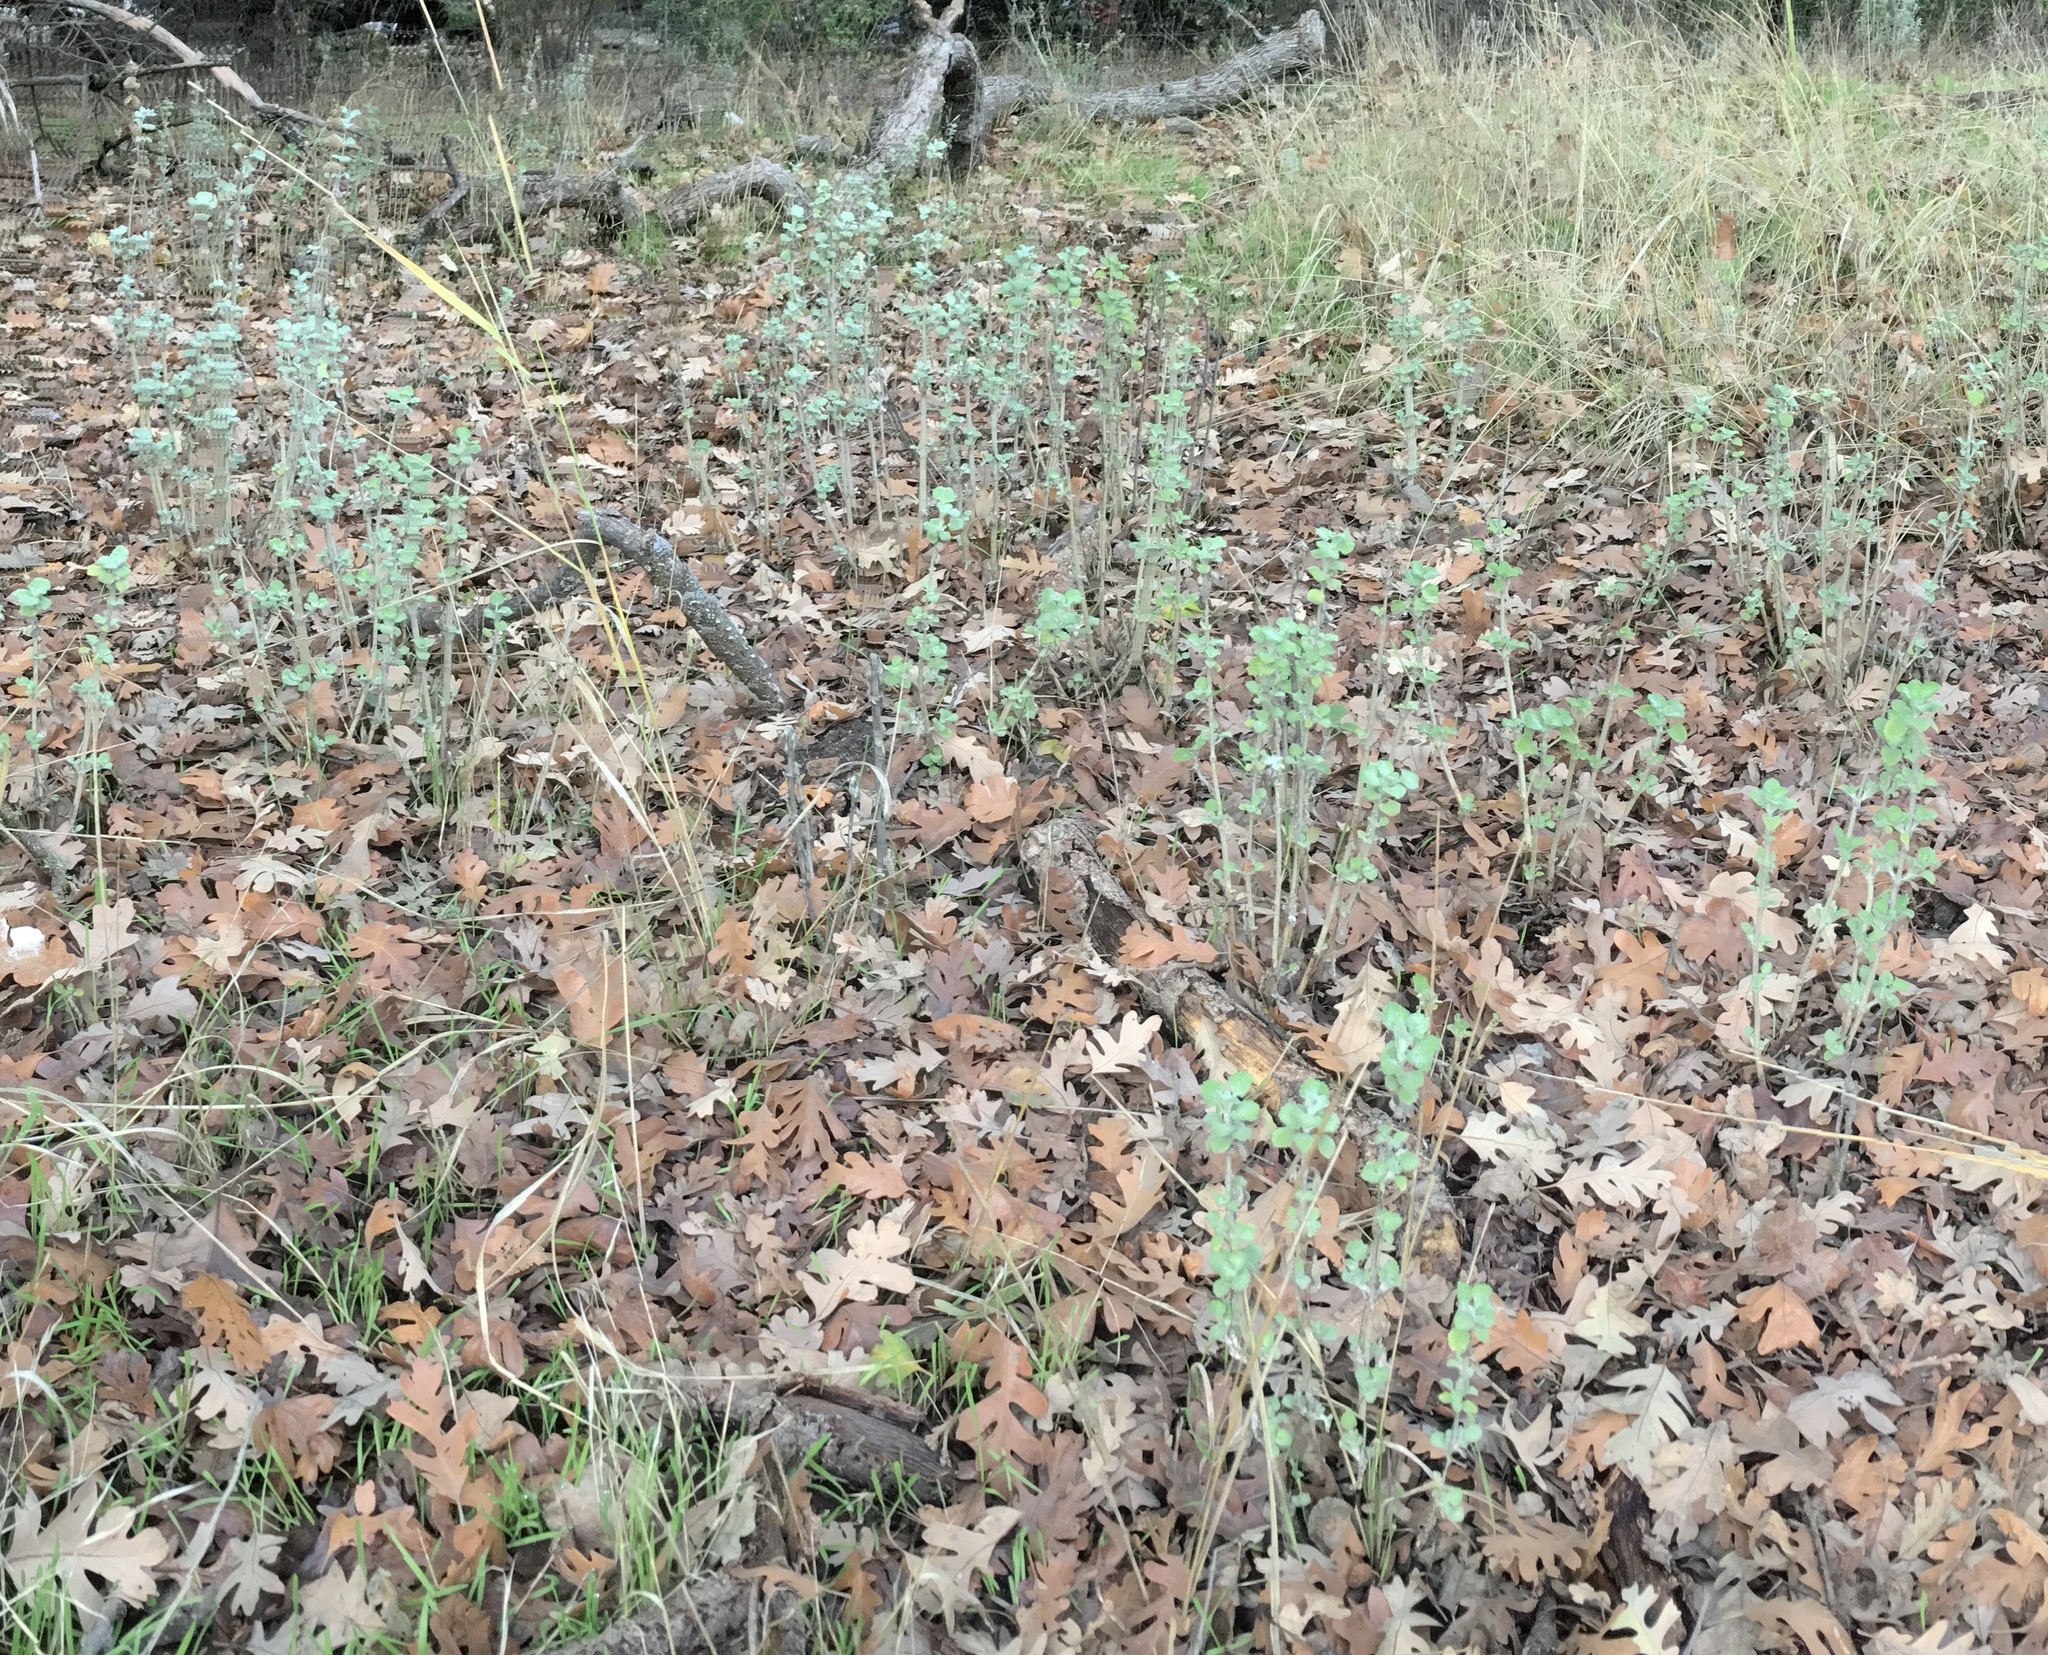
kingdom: Plantae
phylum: Tracheophyta
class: Magnoliopsida
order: Lamiales
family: Lamiaceae
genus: Marrubium
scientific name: Marrubium vulgare
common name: Horehound
